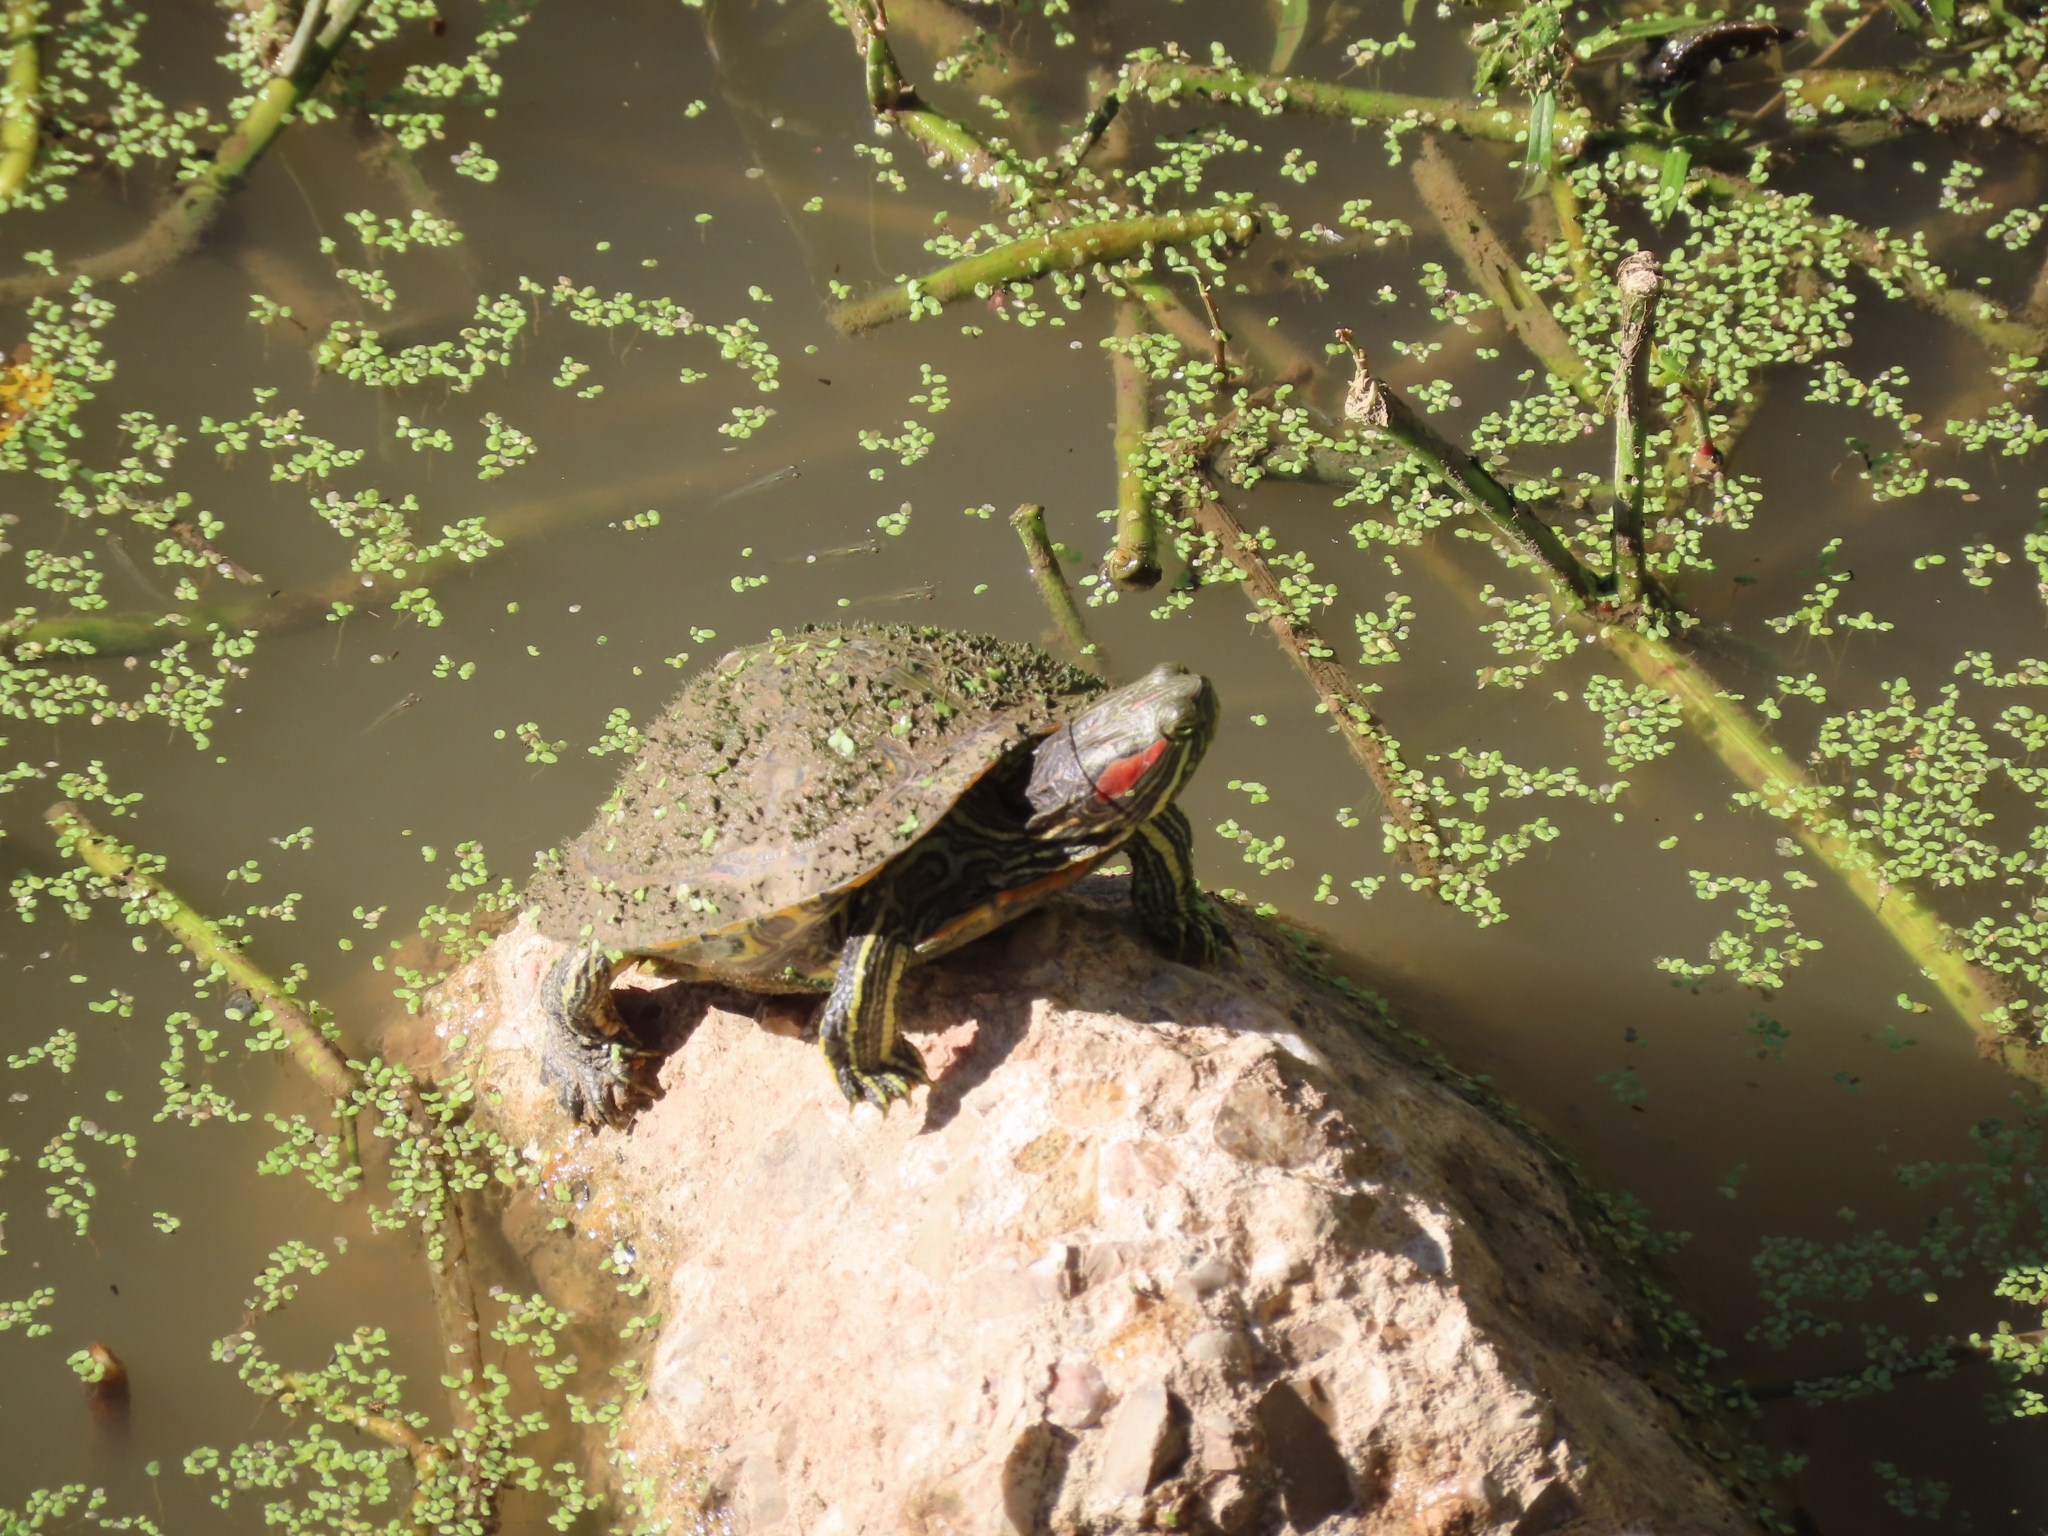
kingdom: Animalia
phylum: Chordata
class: Testudines
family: Emydidae
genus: Trachemys
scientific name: Trachemys scripta
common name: Slider
